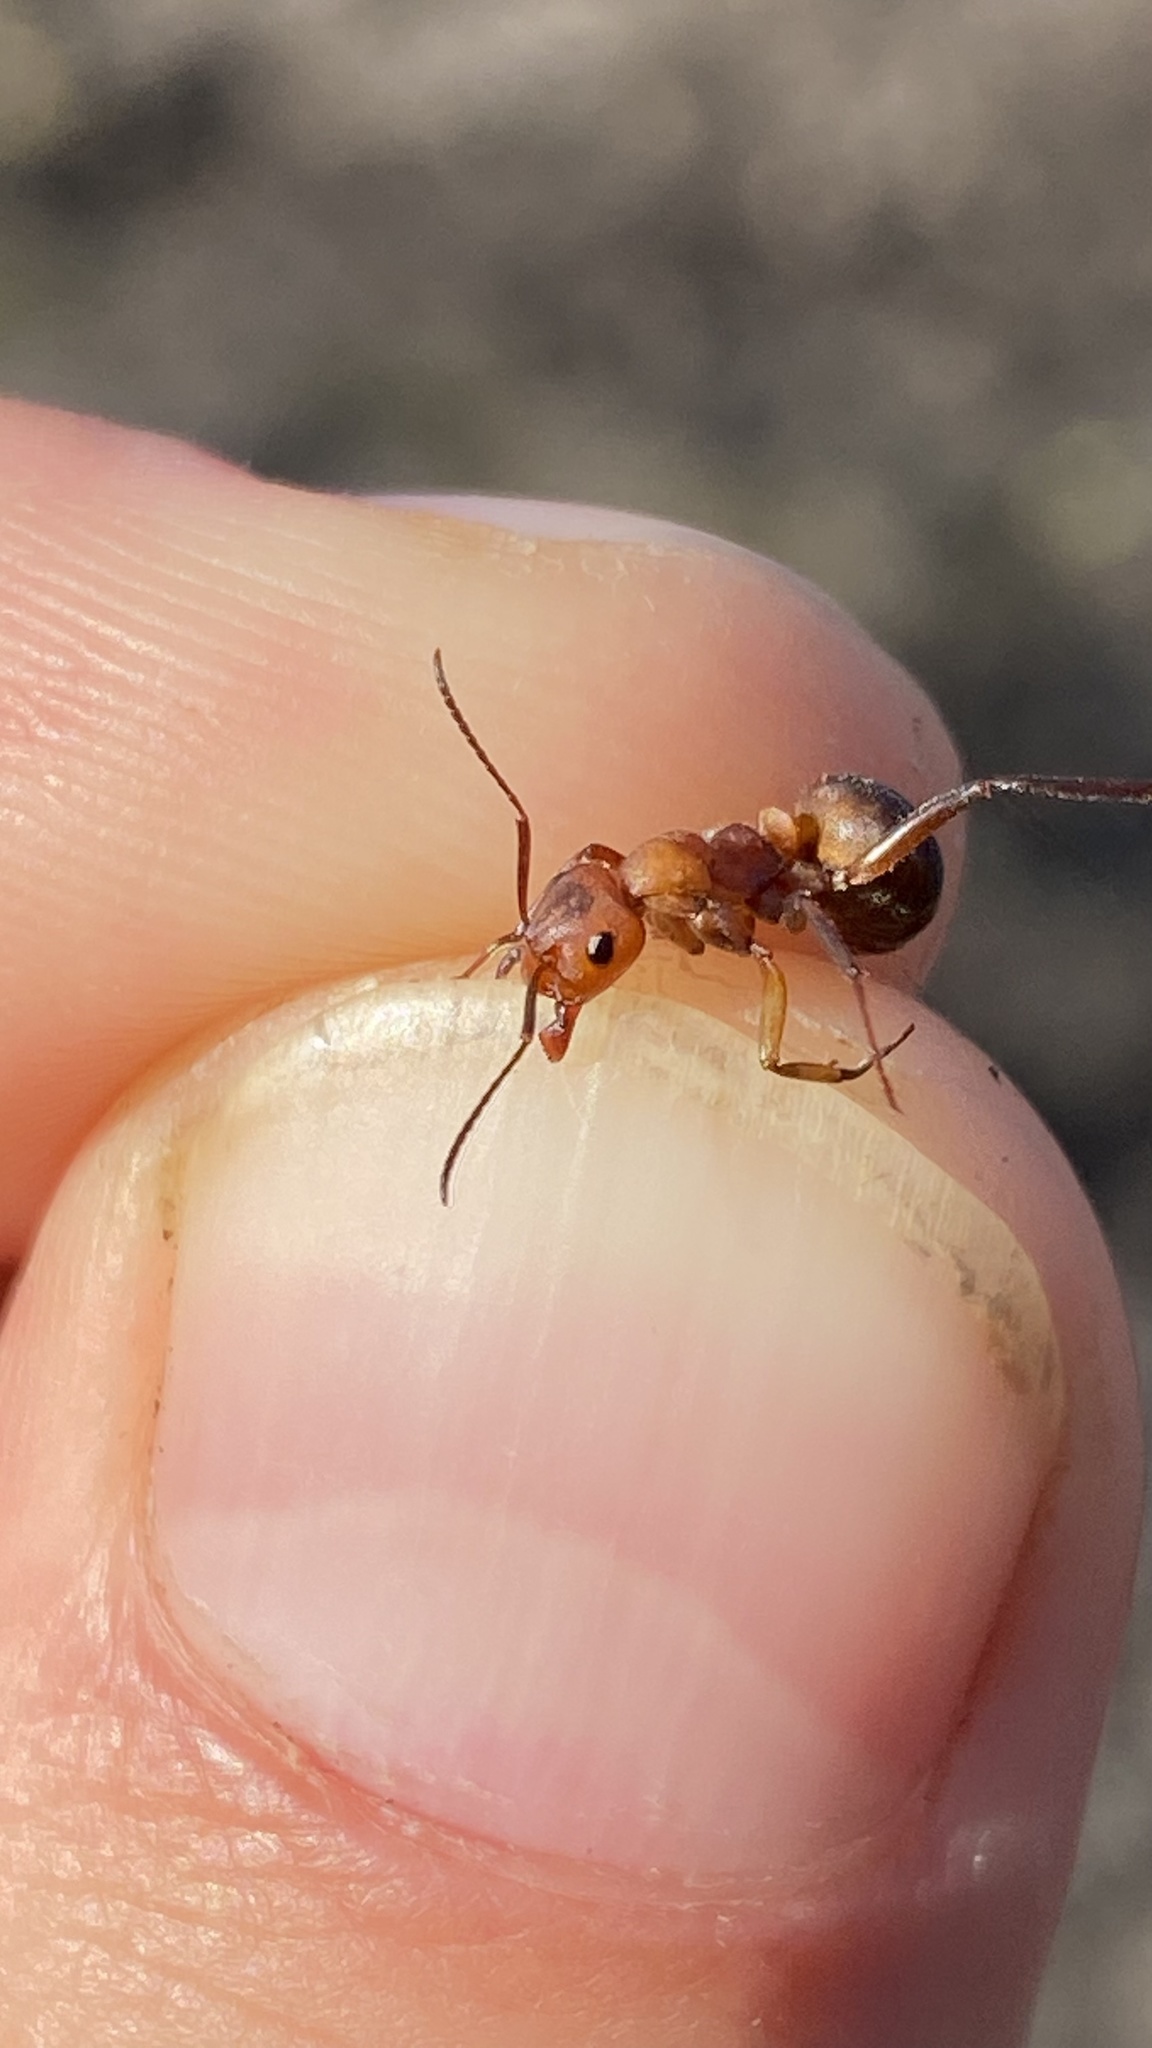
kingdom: Animalia
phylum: Arthropoda
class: Insecta
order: Hymenoptera
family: Formicidae
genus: Formica
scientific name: Formica truncorum
